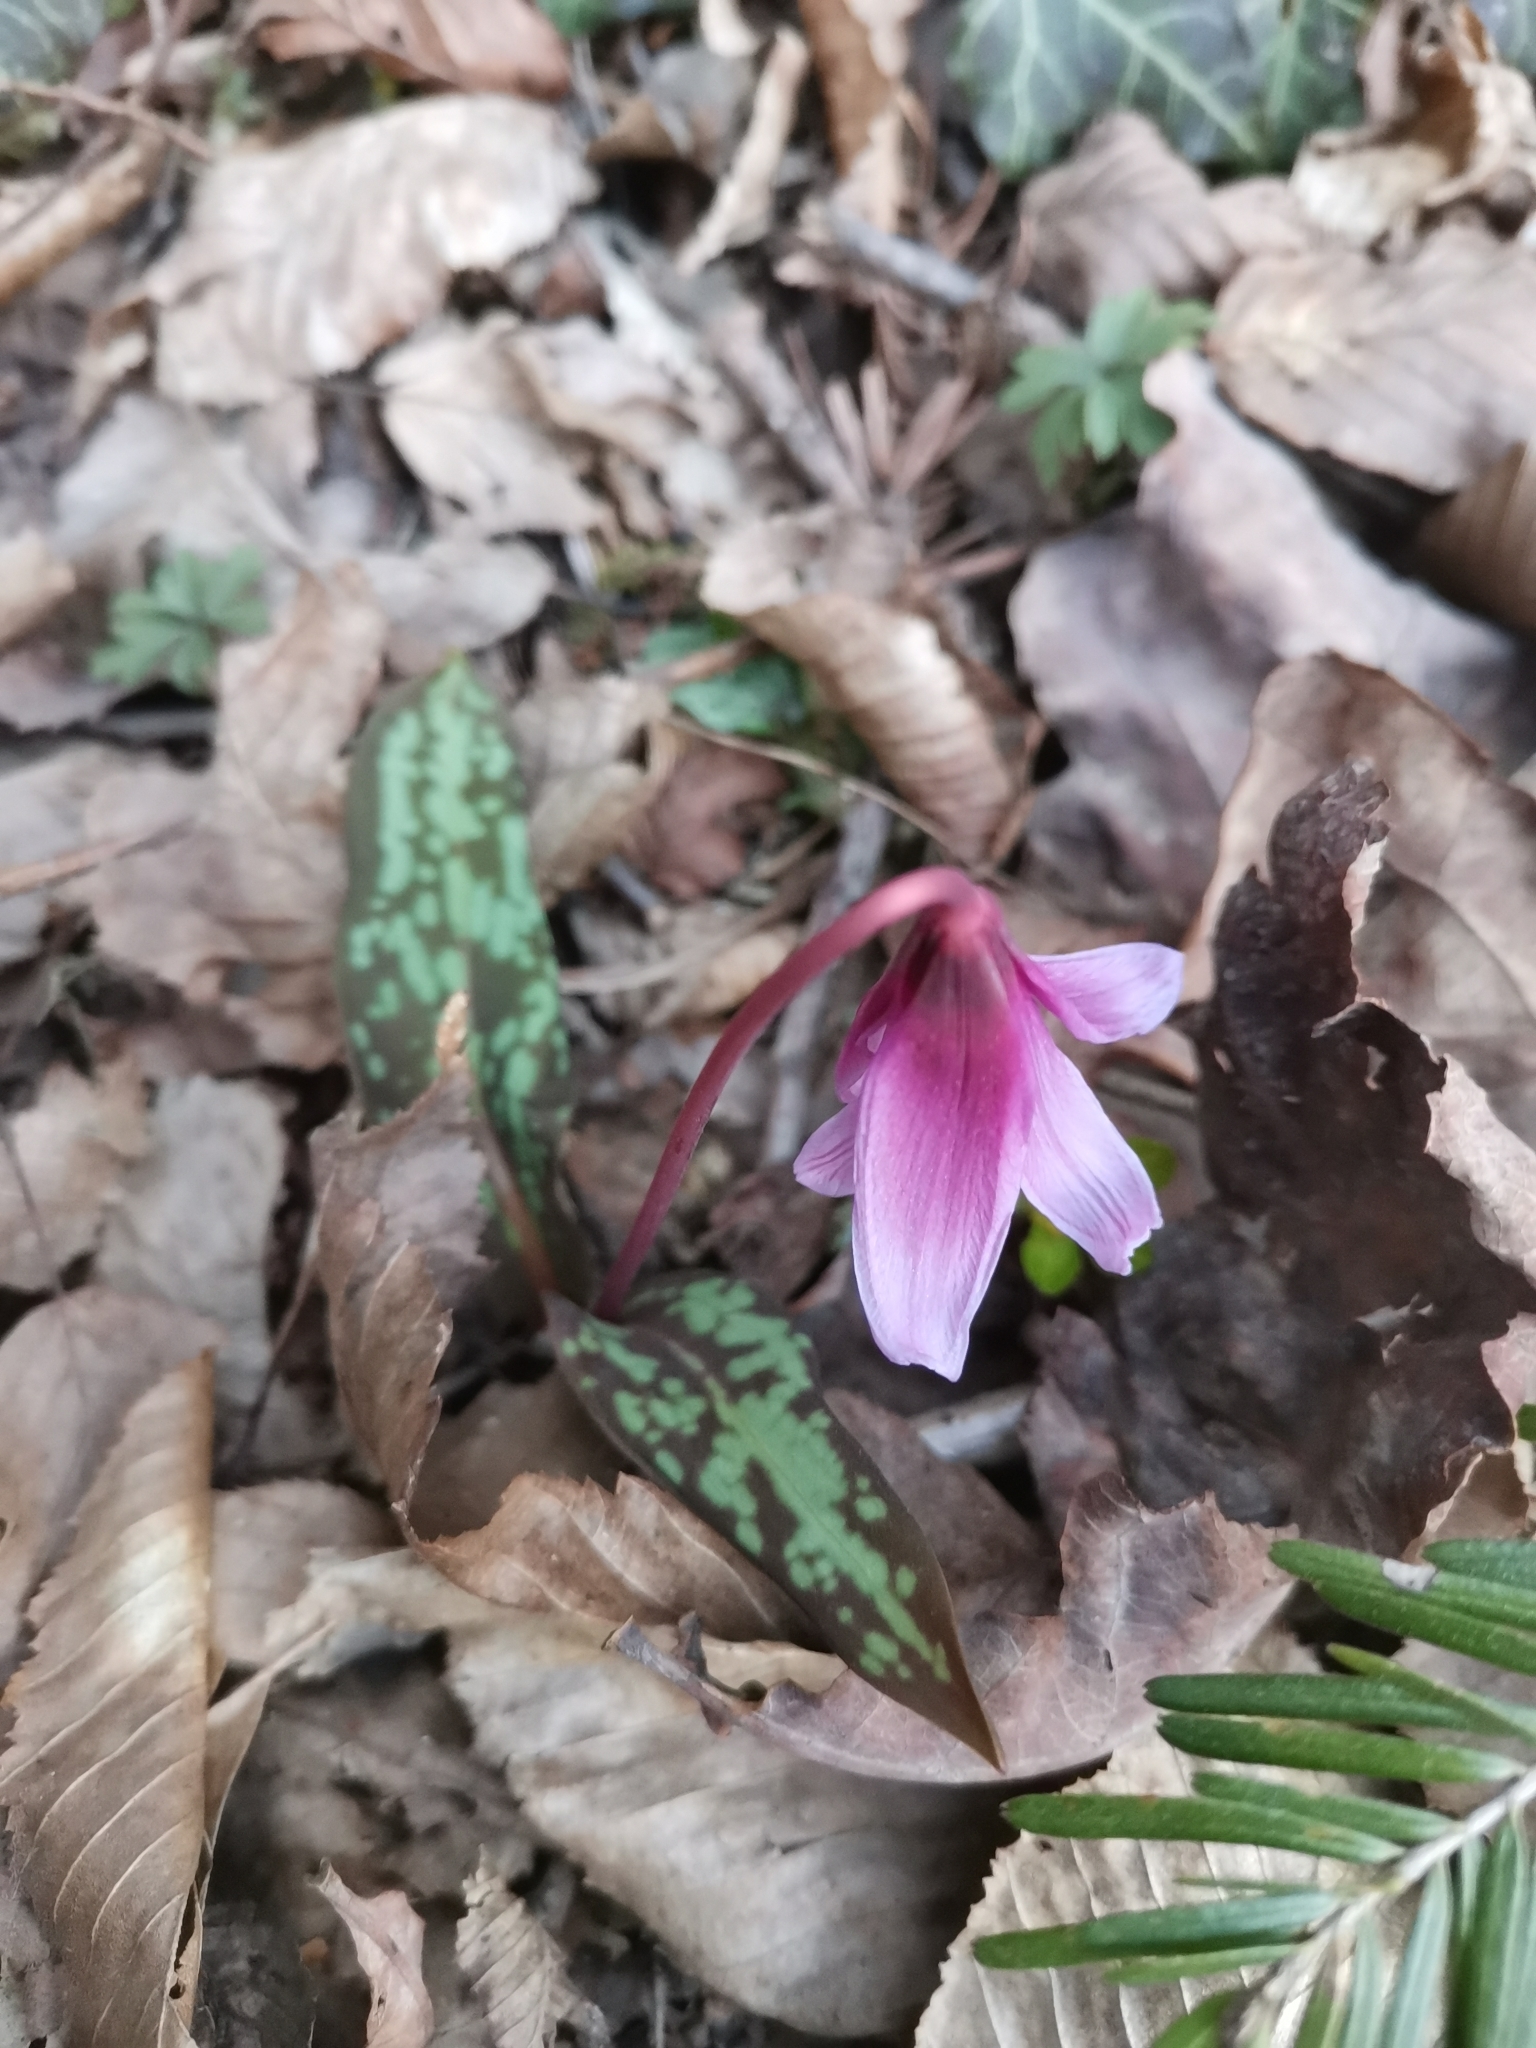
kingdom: Plantae
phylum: Tracheophyta
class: Liliopsida
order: Liliales
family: Liliaceae
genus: Erythronium
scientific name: Erythronium dens-canis
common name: Dog's-tooth-violet
